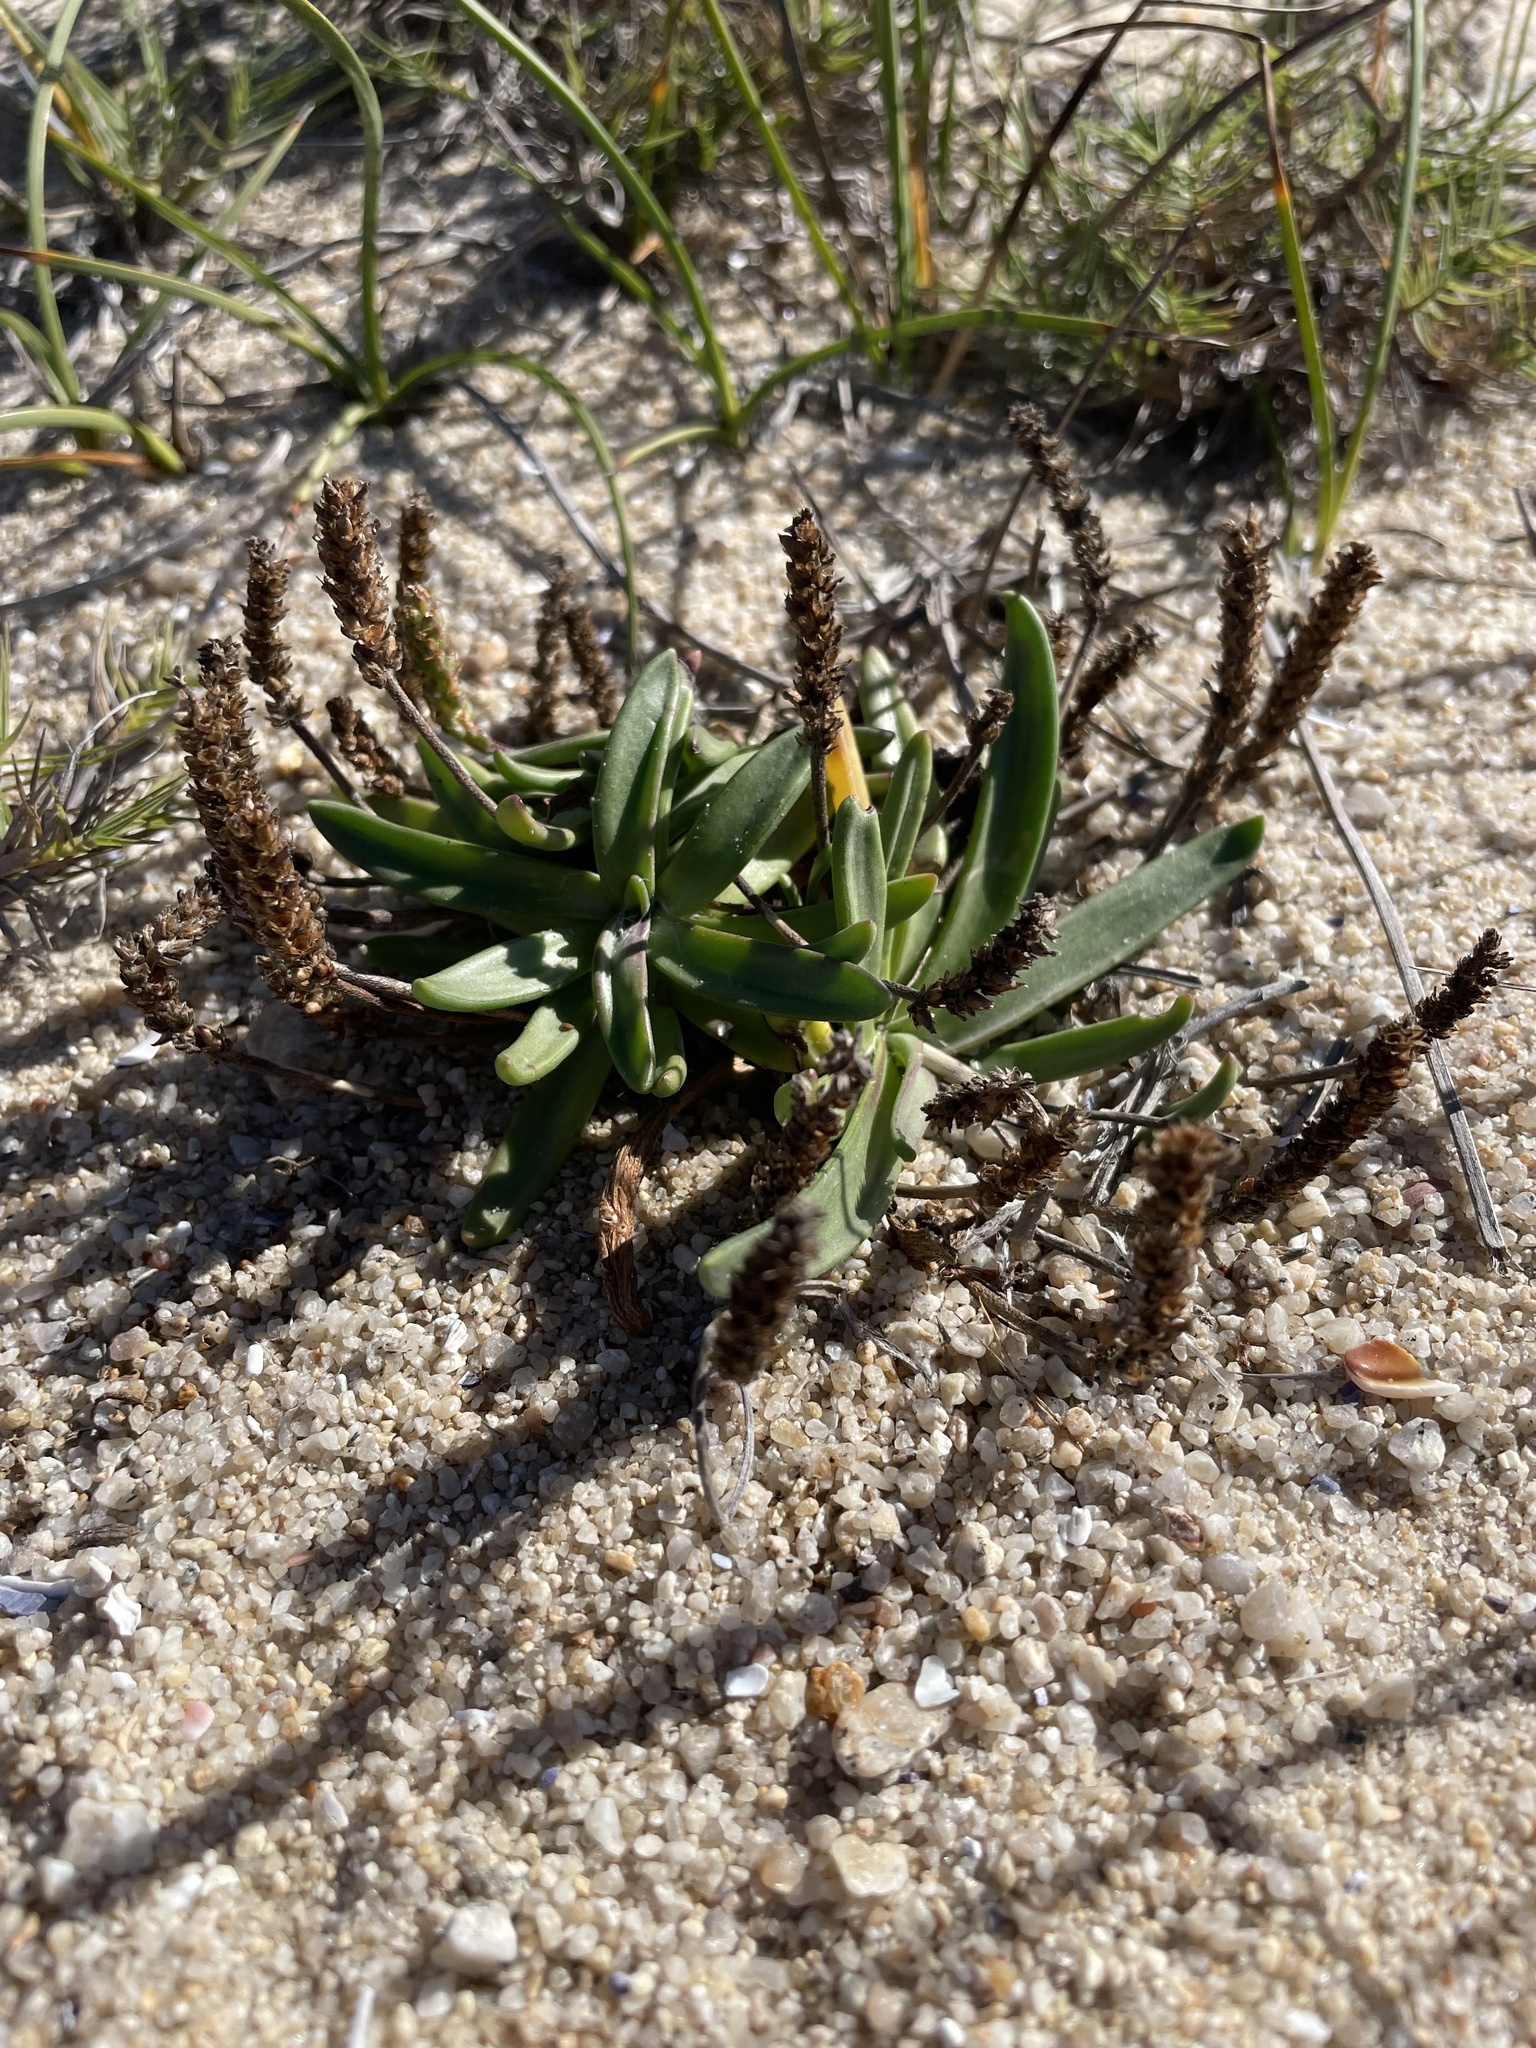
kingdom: Plantae
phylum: Tracheophyta
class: Magnoliopsida
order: Lamiales
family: Plantaginaceae
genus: Plantago
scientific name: Plantago maritima
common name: Sea plantain
